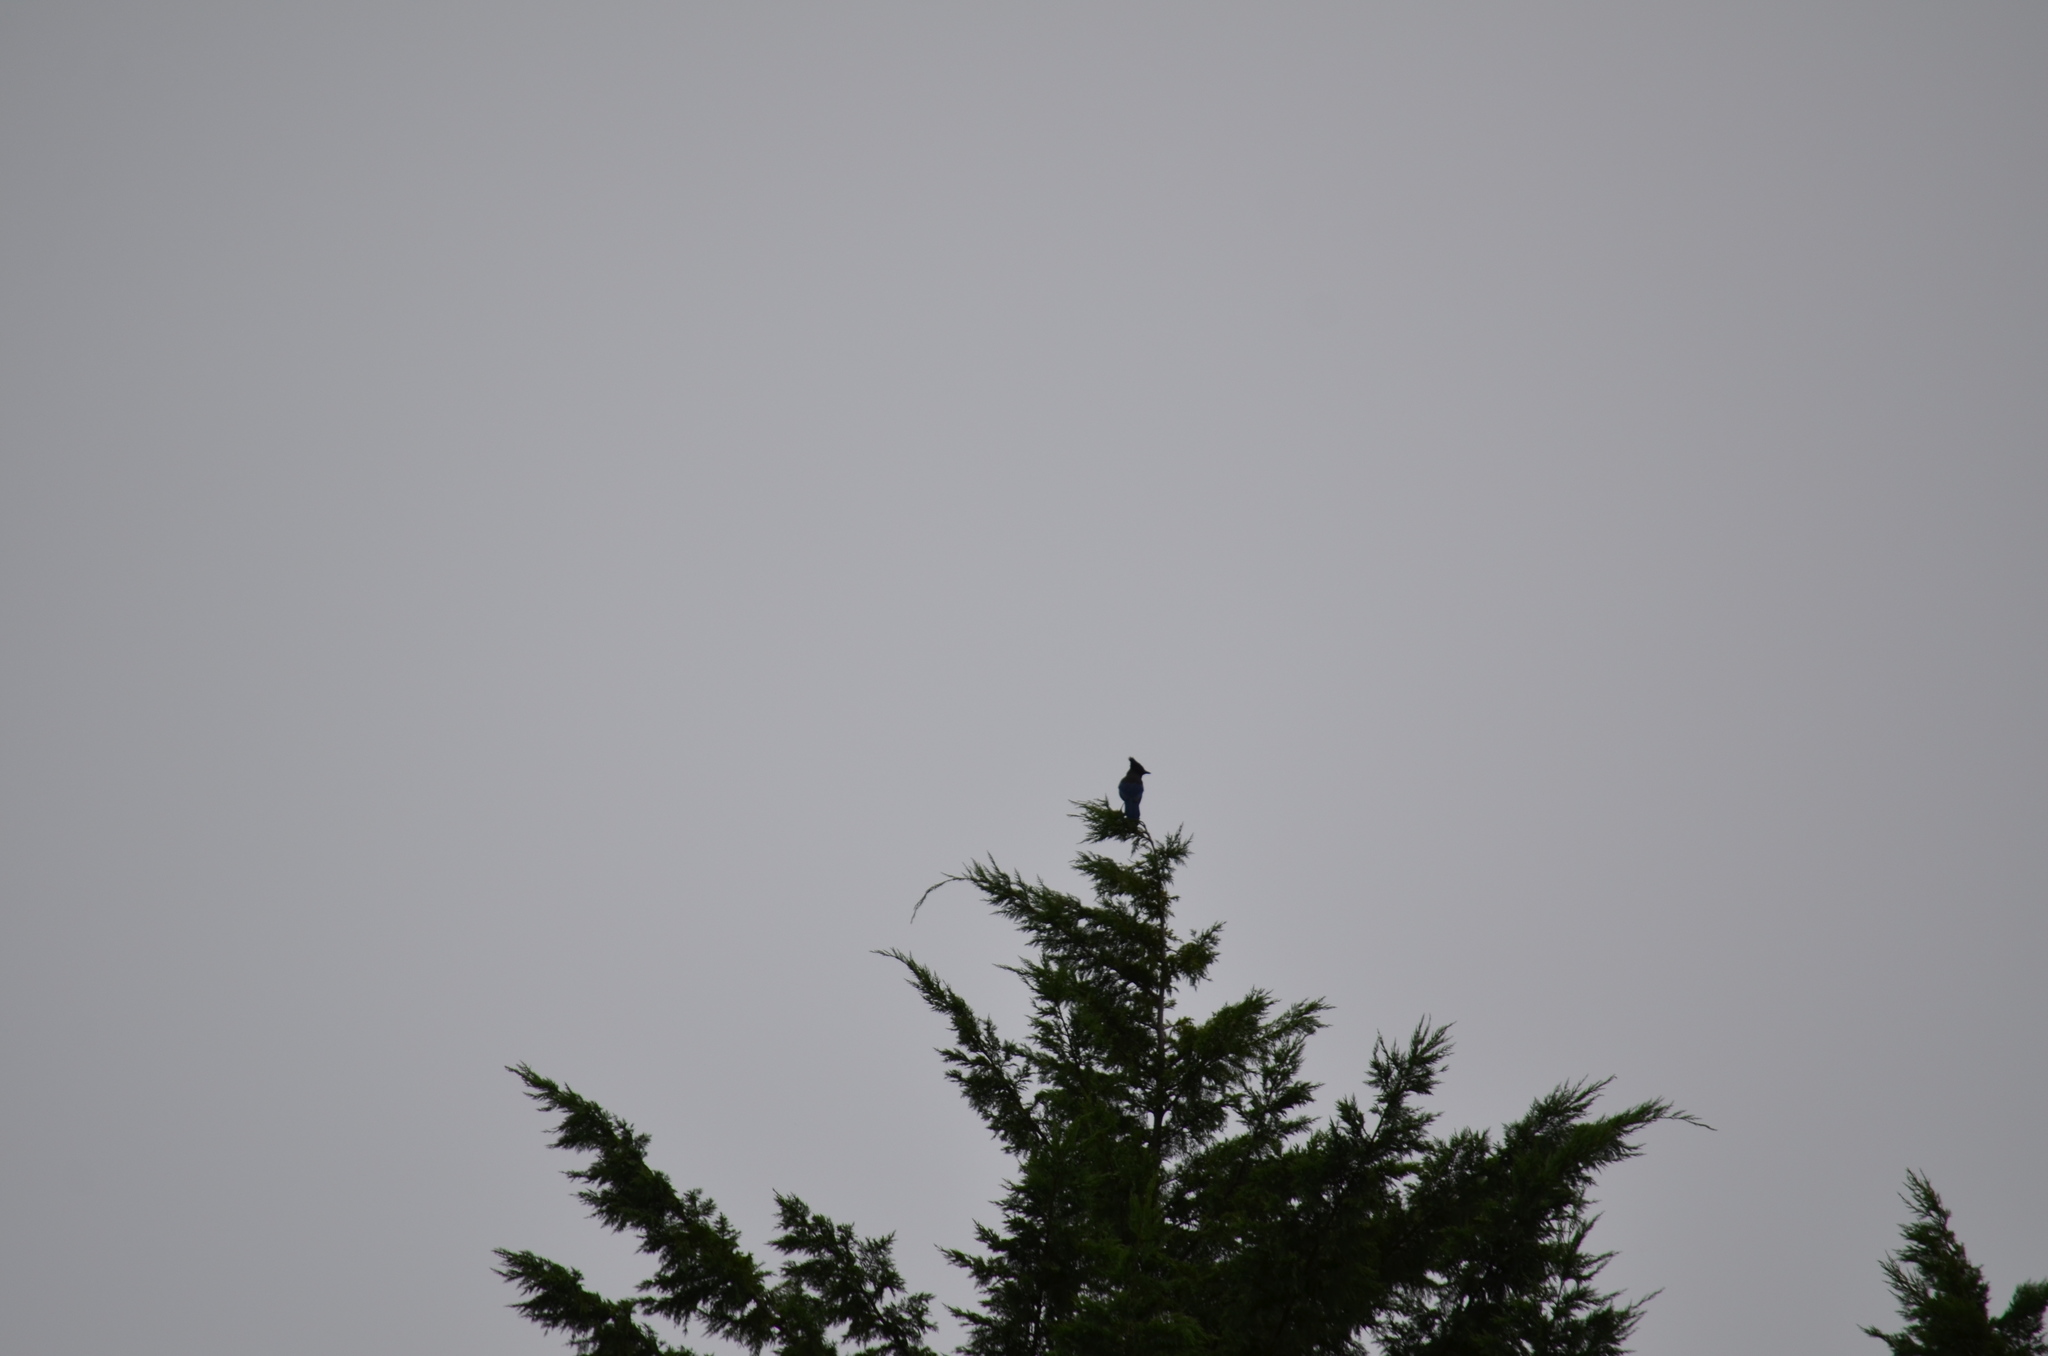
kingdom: Animalia
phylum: Chordata
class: Aves
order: Passeriformes
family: Corvidae
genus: Cyanocitta
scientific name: Cyanocitta stelleri
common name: Steller's jay
